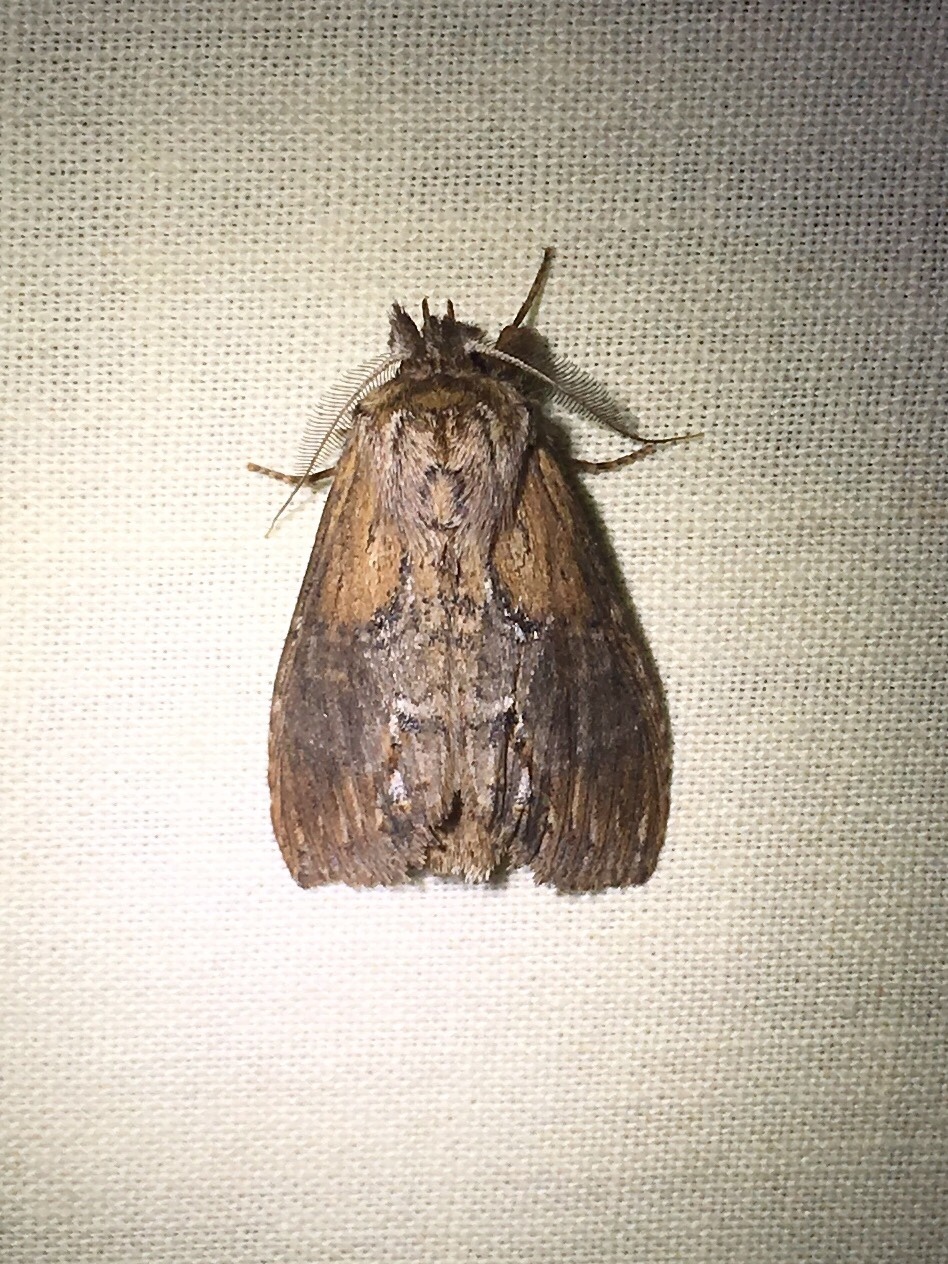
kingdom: Animalia
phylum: Arthropoda
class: Insecta
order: Lepidoptera
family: Notodontidae
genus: Dasylophia
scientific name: Dasylophia thyatiroides
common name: Gray-patched prominent
